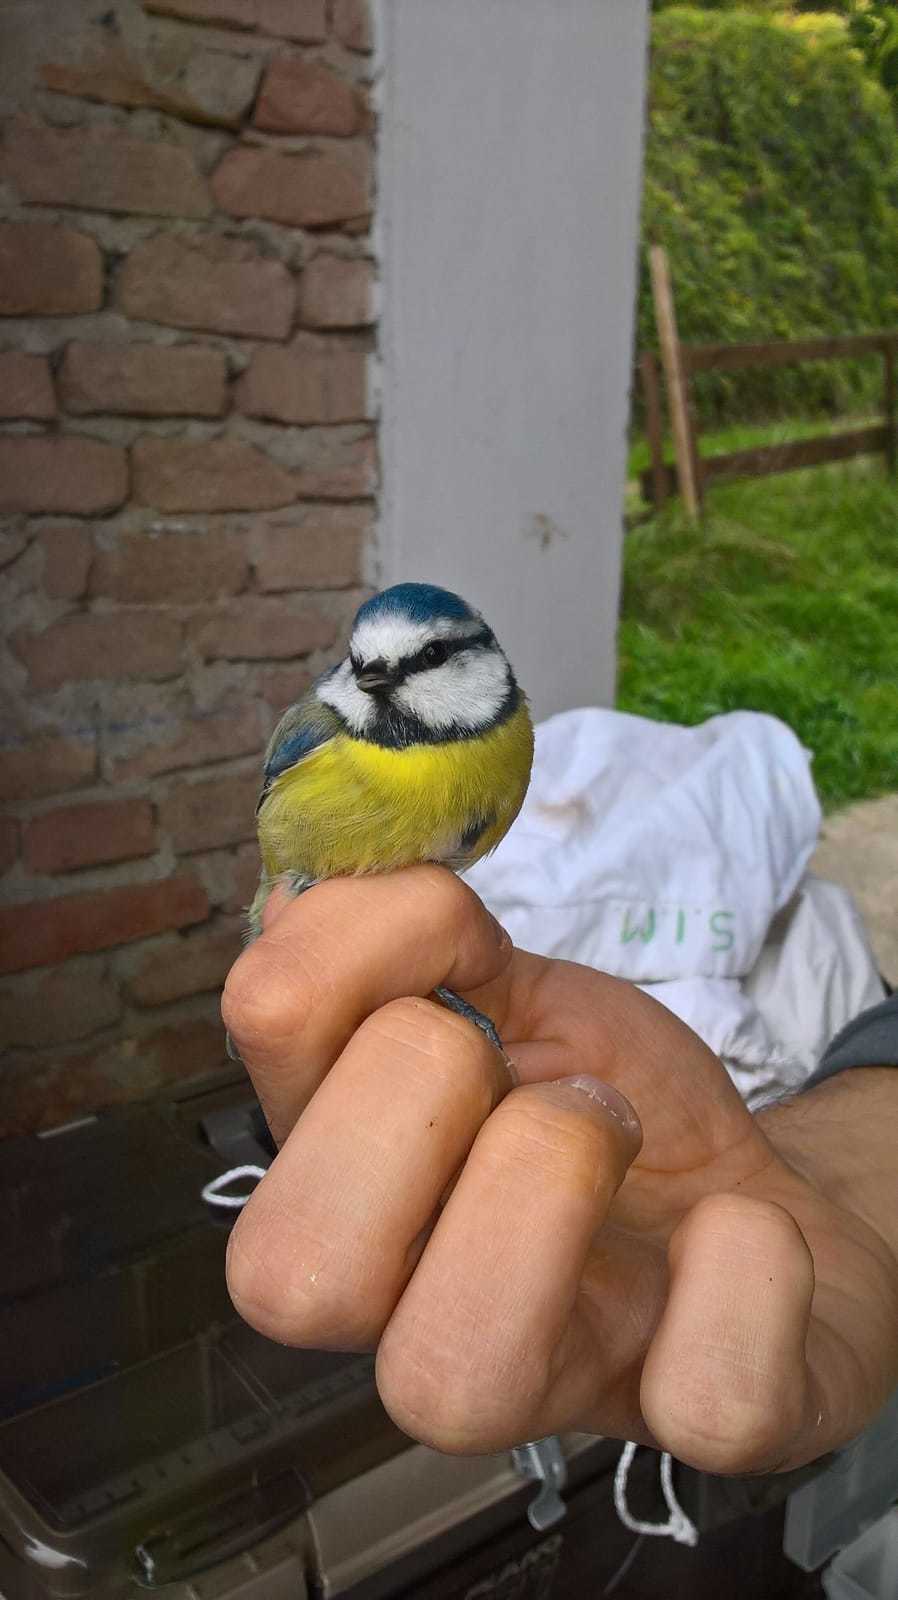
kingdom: Animalia
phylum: Chordata
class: Aves
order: Passeriformes
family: Paridae
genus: Cyanistes
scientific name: Cyanistes caeruleus
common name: Eurasian blue tit
